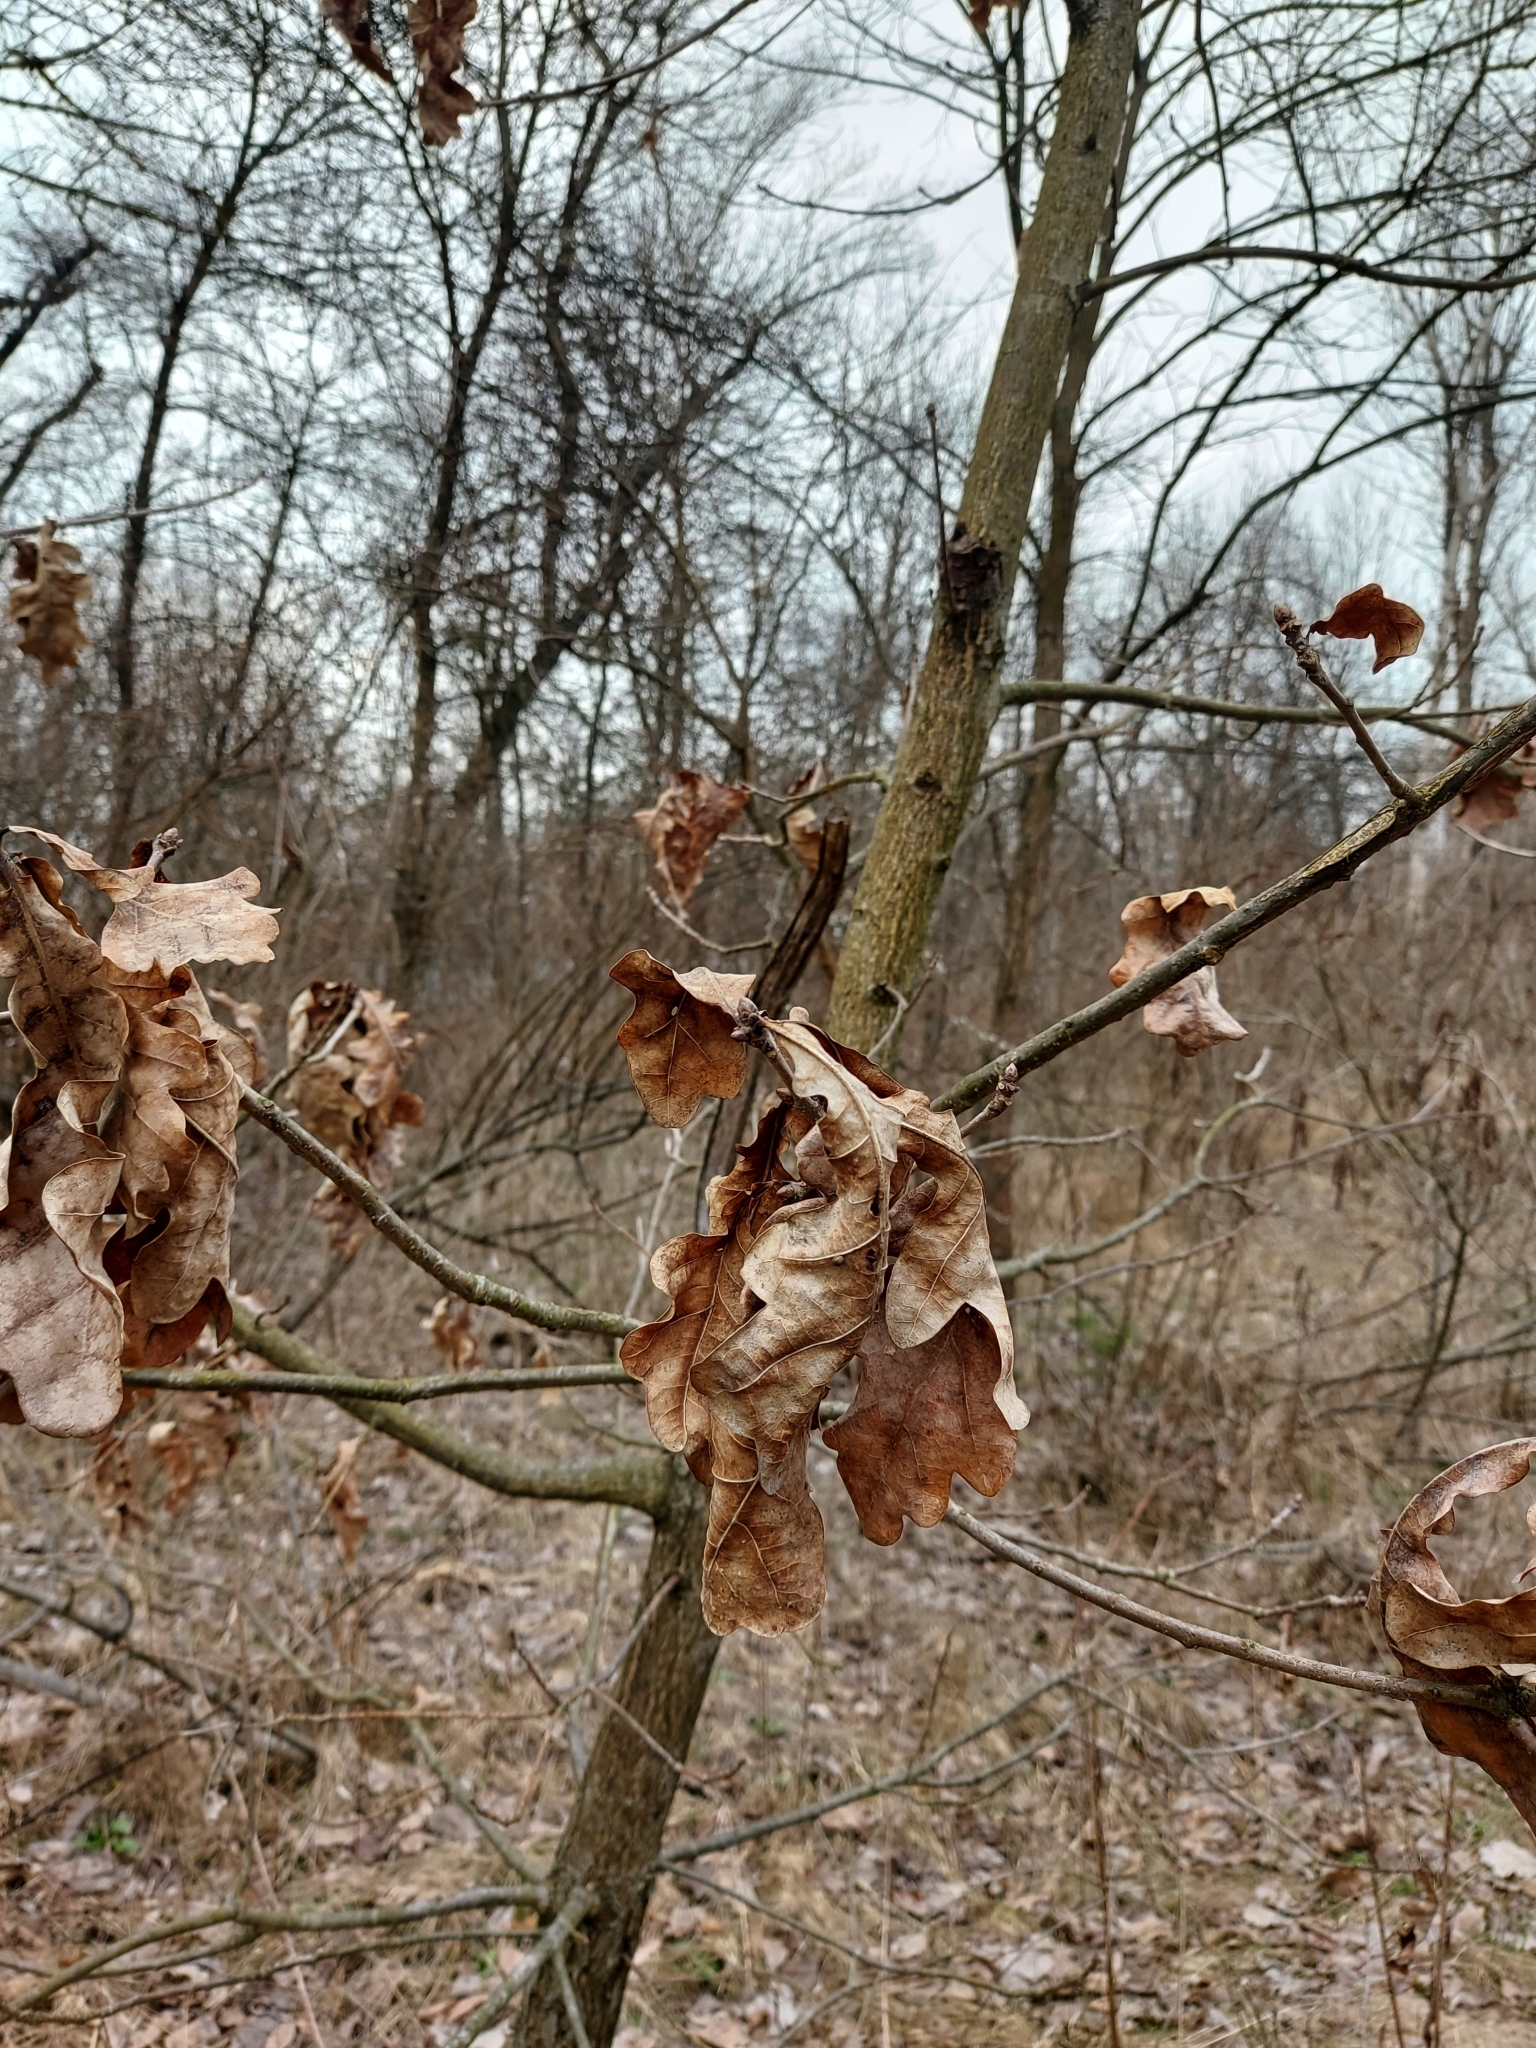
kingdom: Plantae
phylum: Tracheophyta
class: Magnoliopsida
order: Fagales
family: Fagaceae
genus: Quercus
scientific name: Quercus robur
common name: Pedunculate oak
